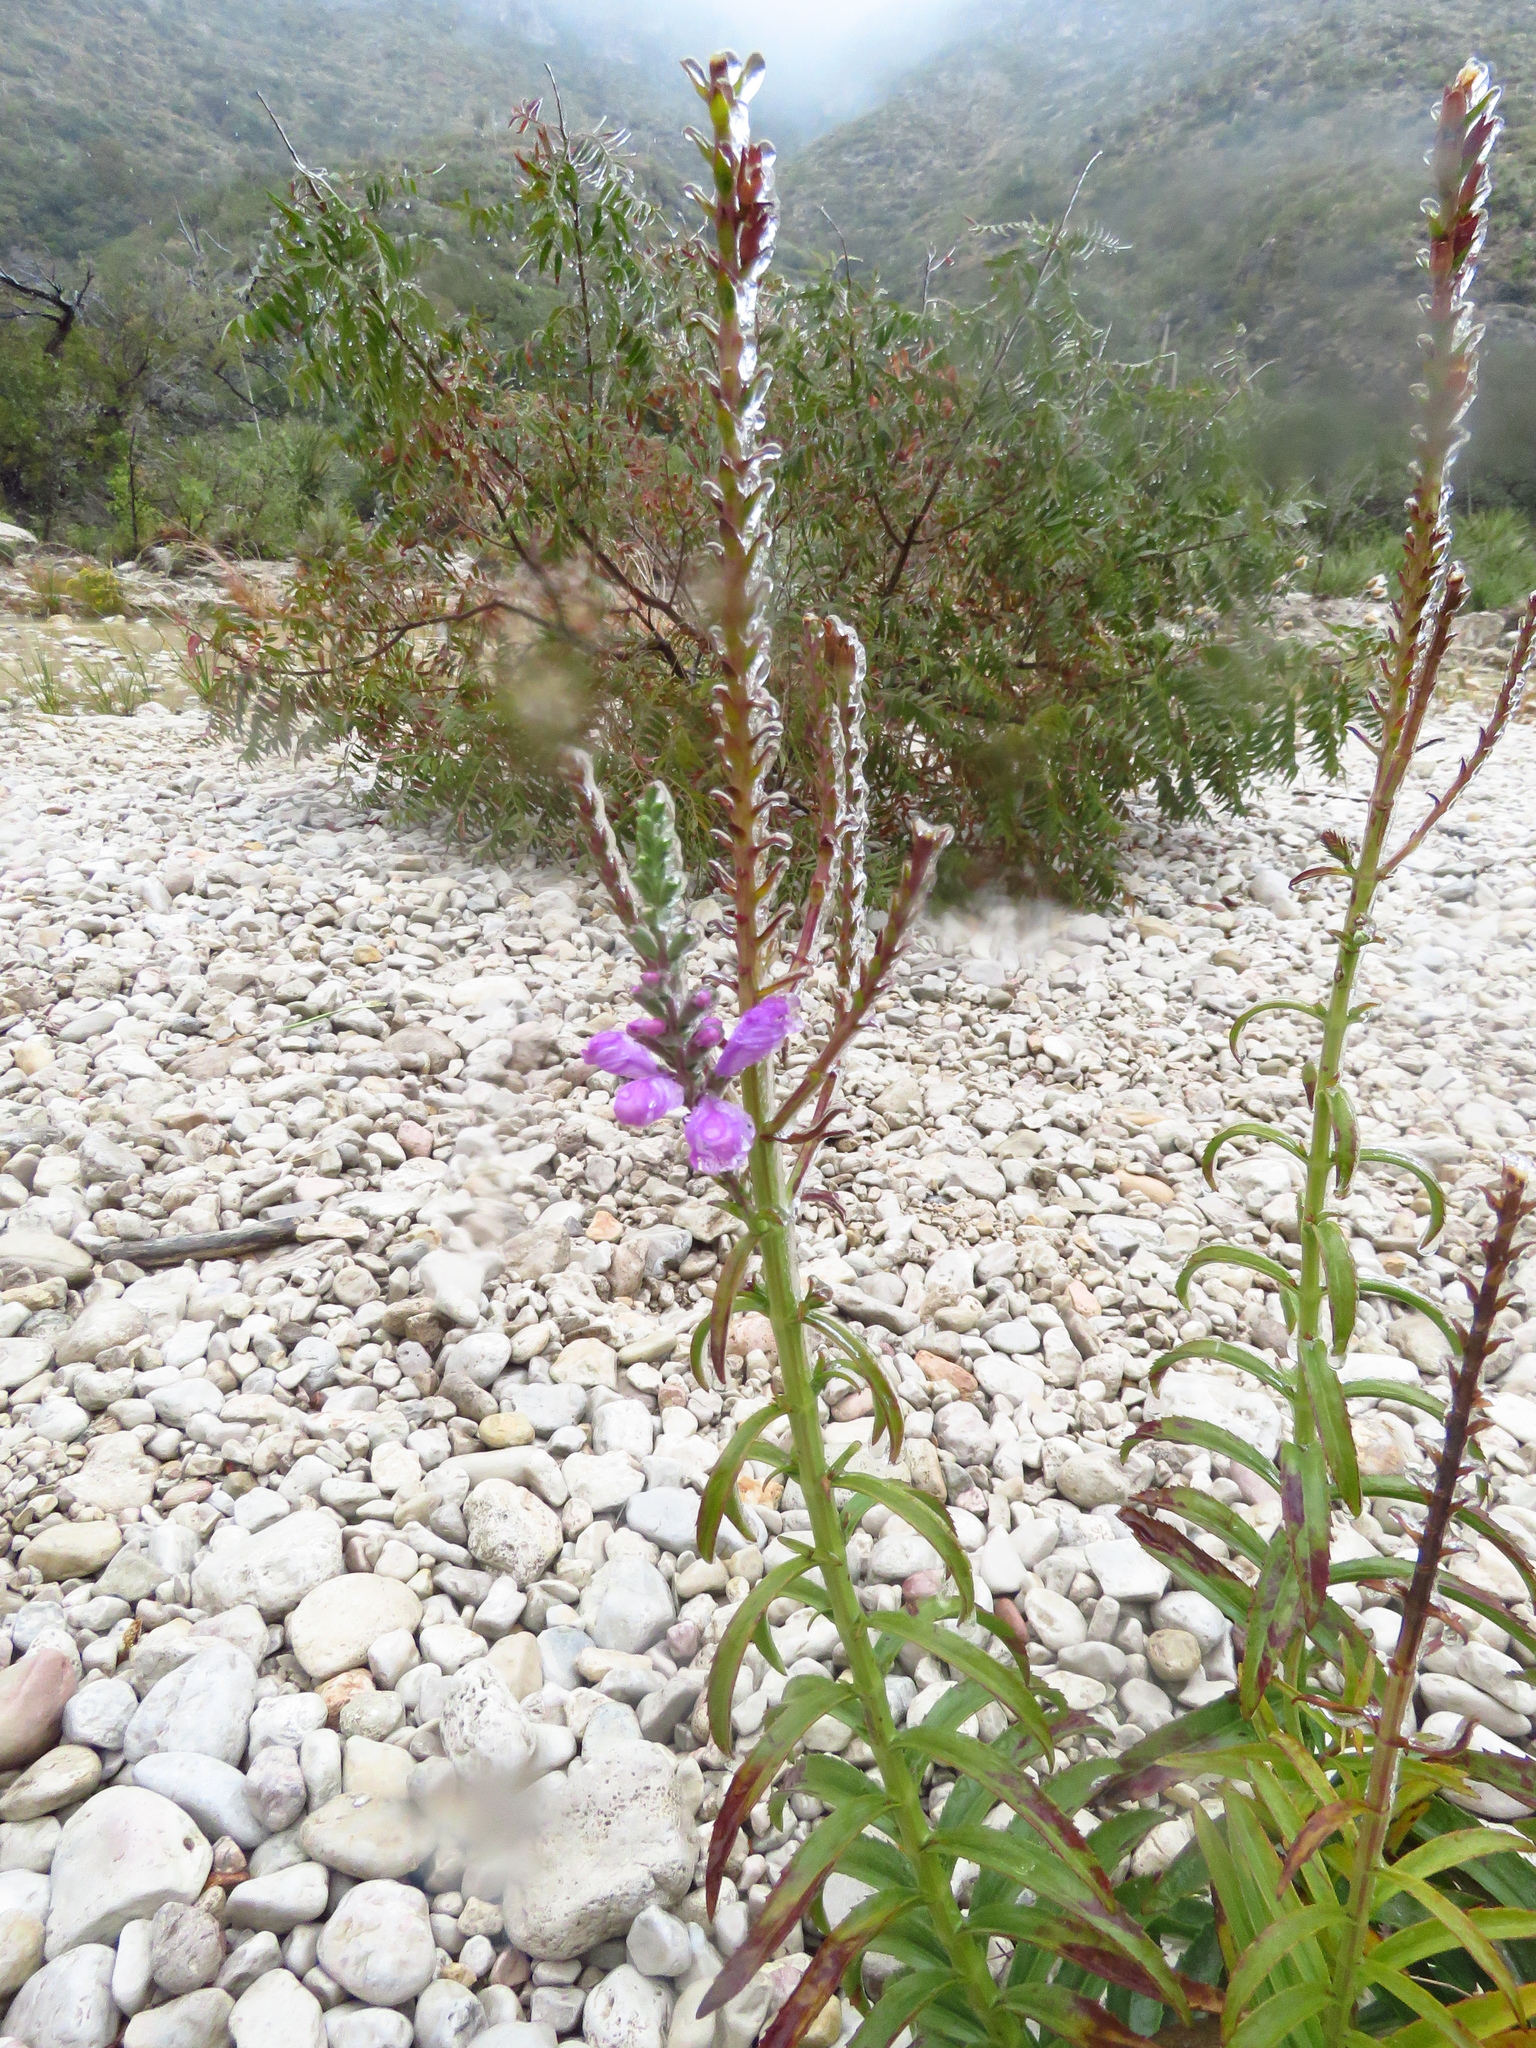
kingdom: Plantae
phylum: Tracheophyta
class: Magnoliopsida
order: Lamiales
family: Lamiaceae
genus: Physostegia
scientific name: Physostegia virginiana
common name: Obedient-plant
